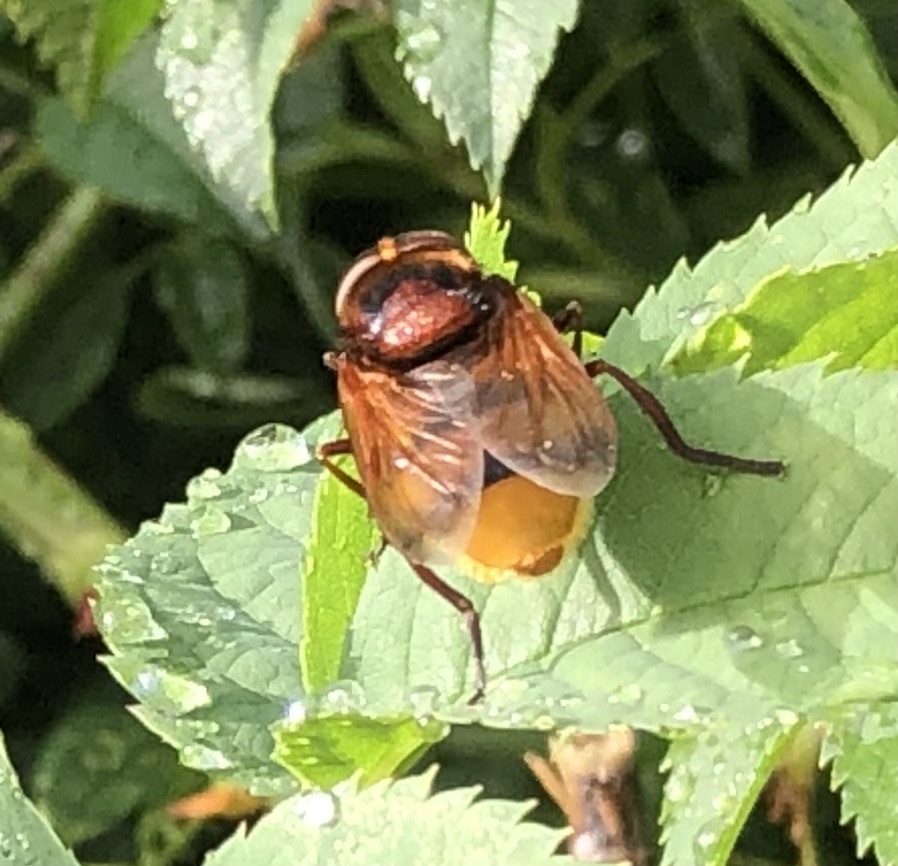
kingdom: Animalia
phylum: Arthropoda
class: Insecta
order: Diptera
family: Syrphidae
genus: Volucella
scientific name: Volucella zonaria
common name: Hornet hoverfly
